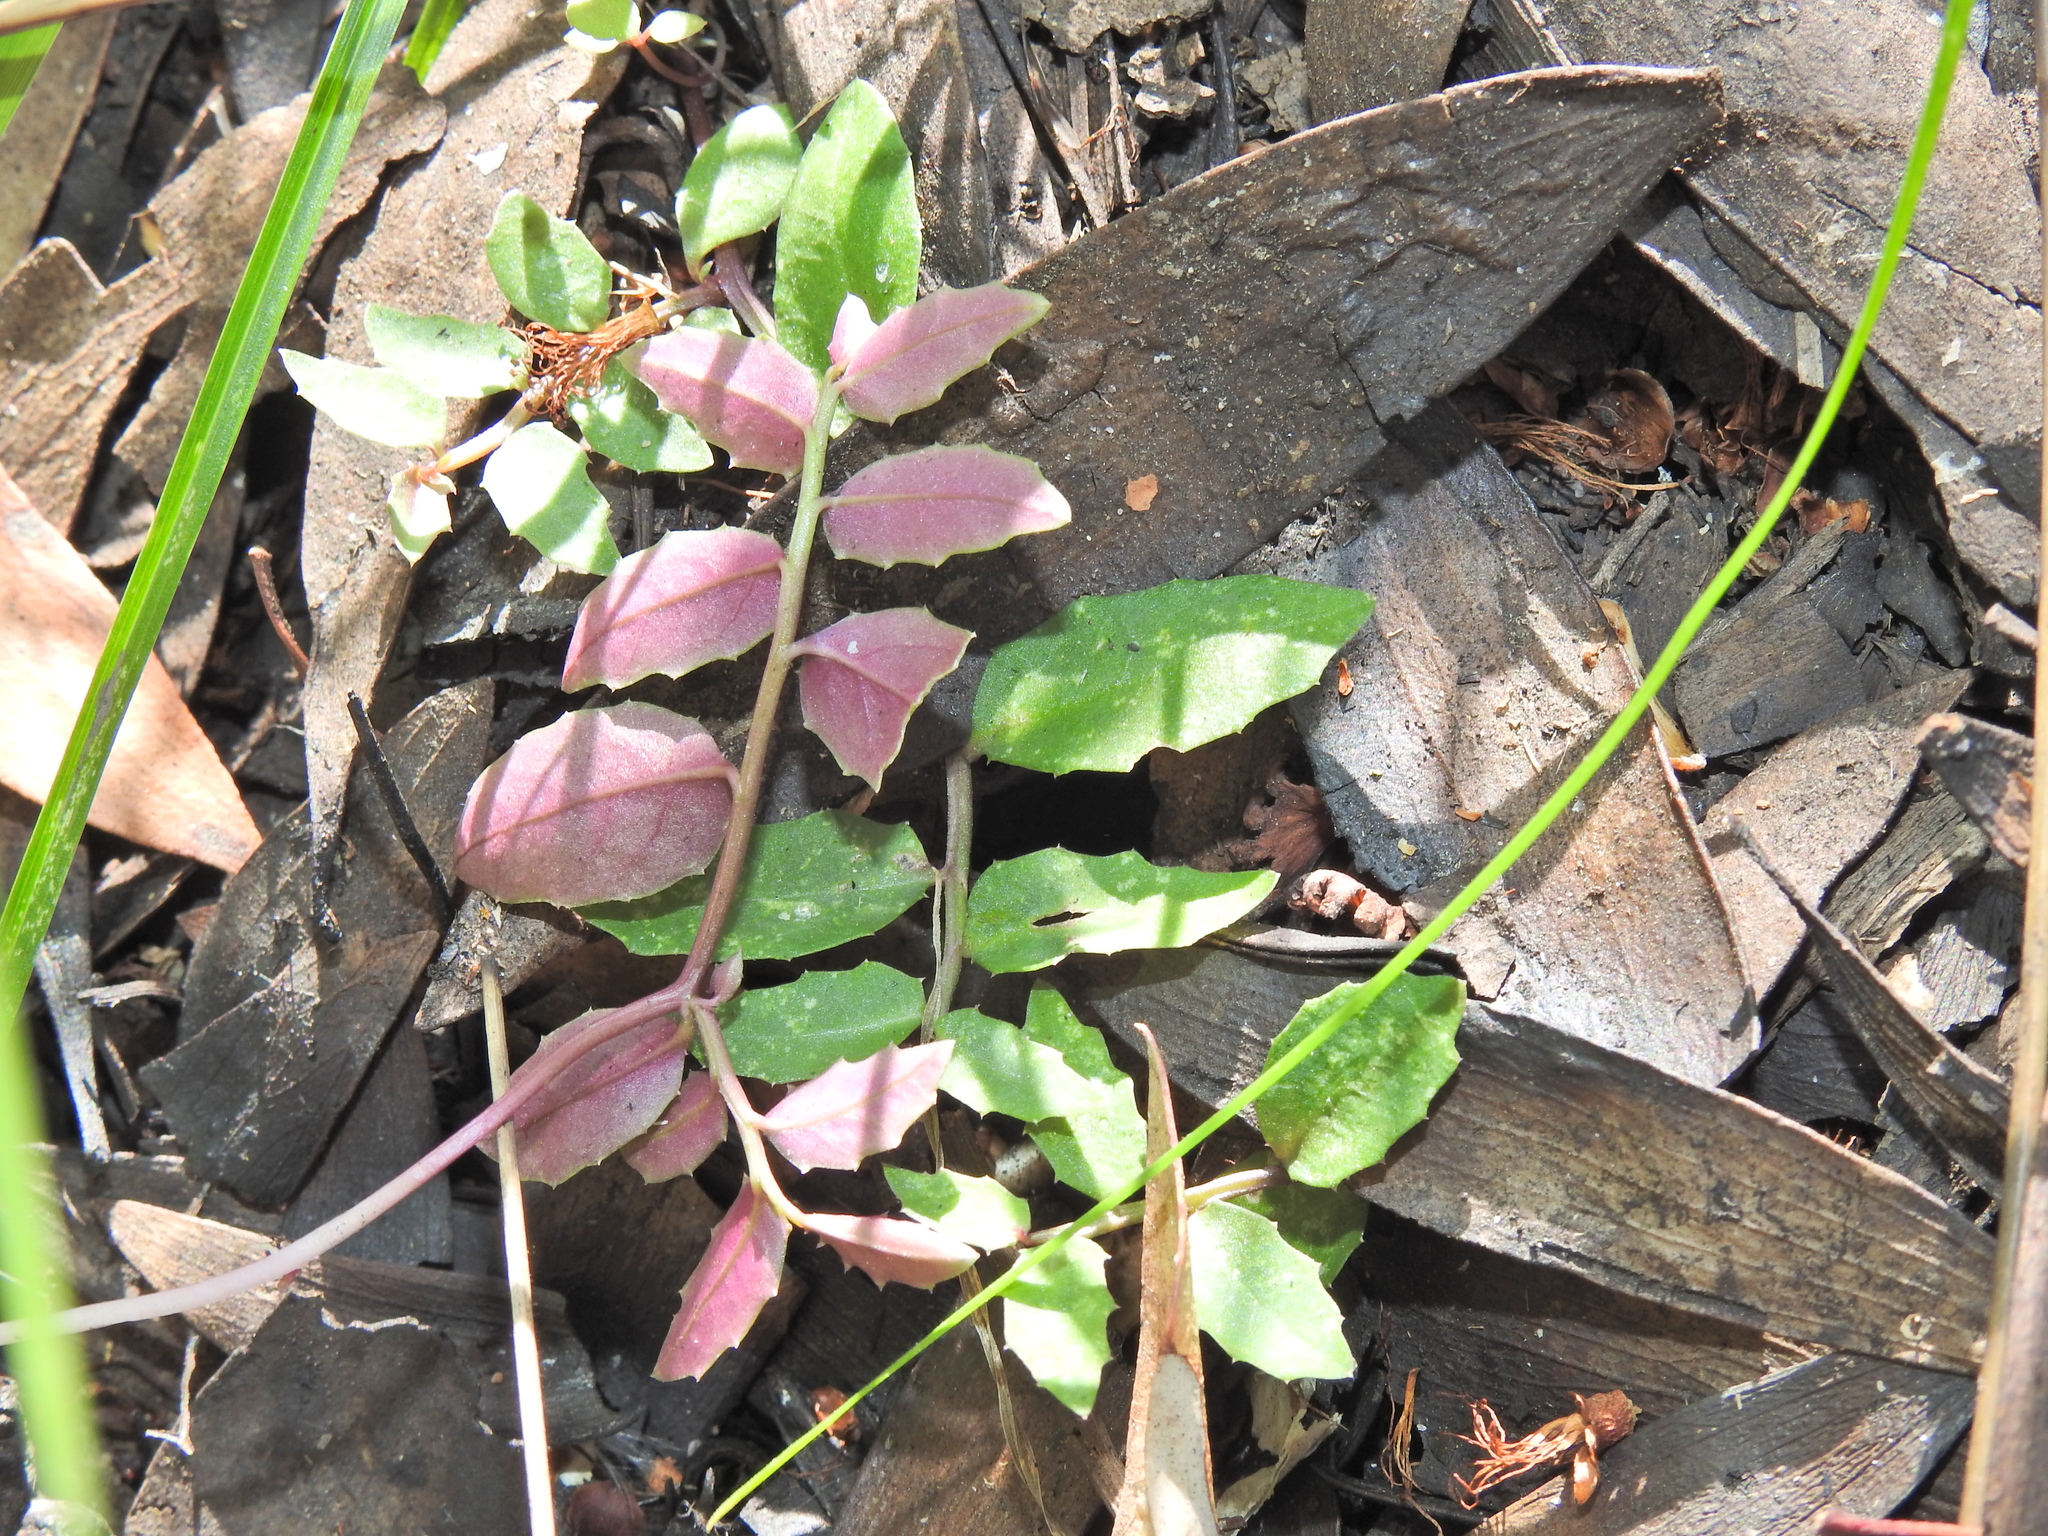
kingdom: Plantae
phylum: Tracheophyta
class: Magnoliopsida
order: Asterales
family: Campanulaceae
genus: Lobelia
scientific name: Lobelia purpurascens
